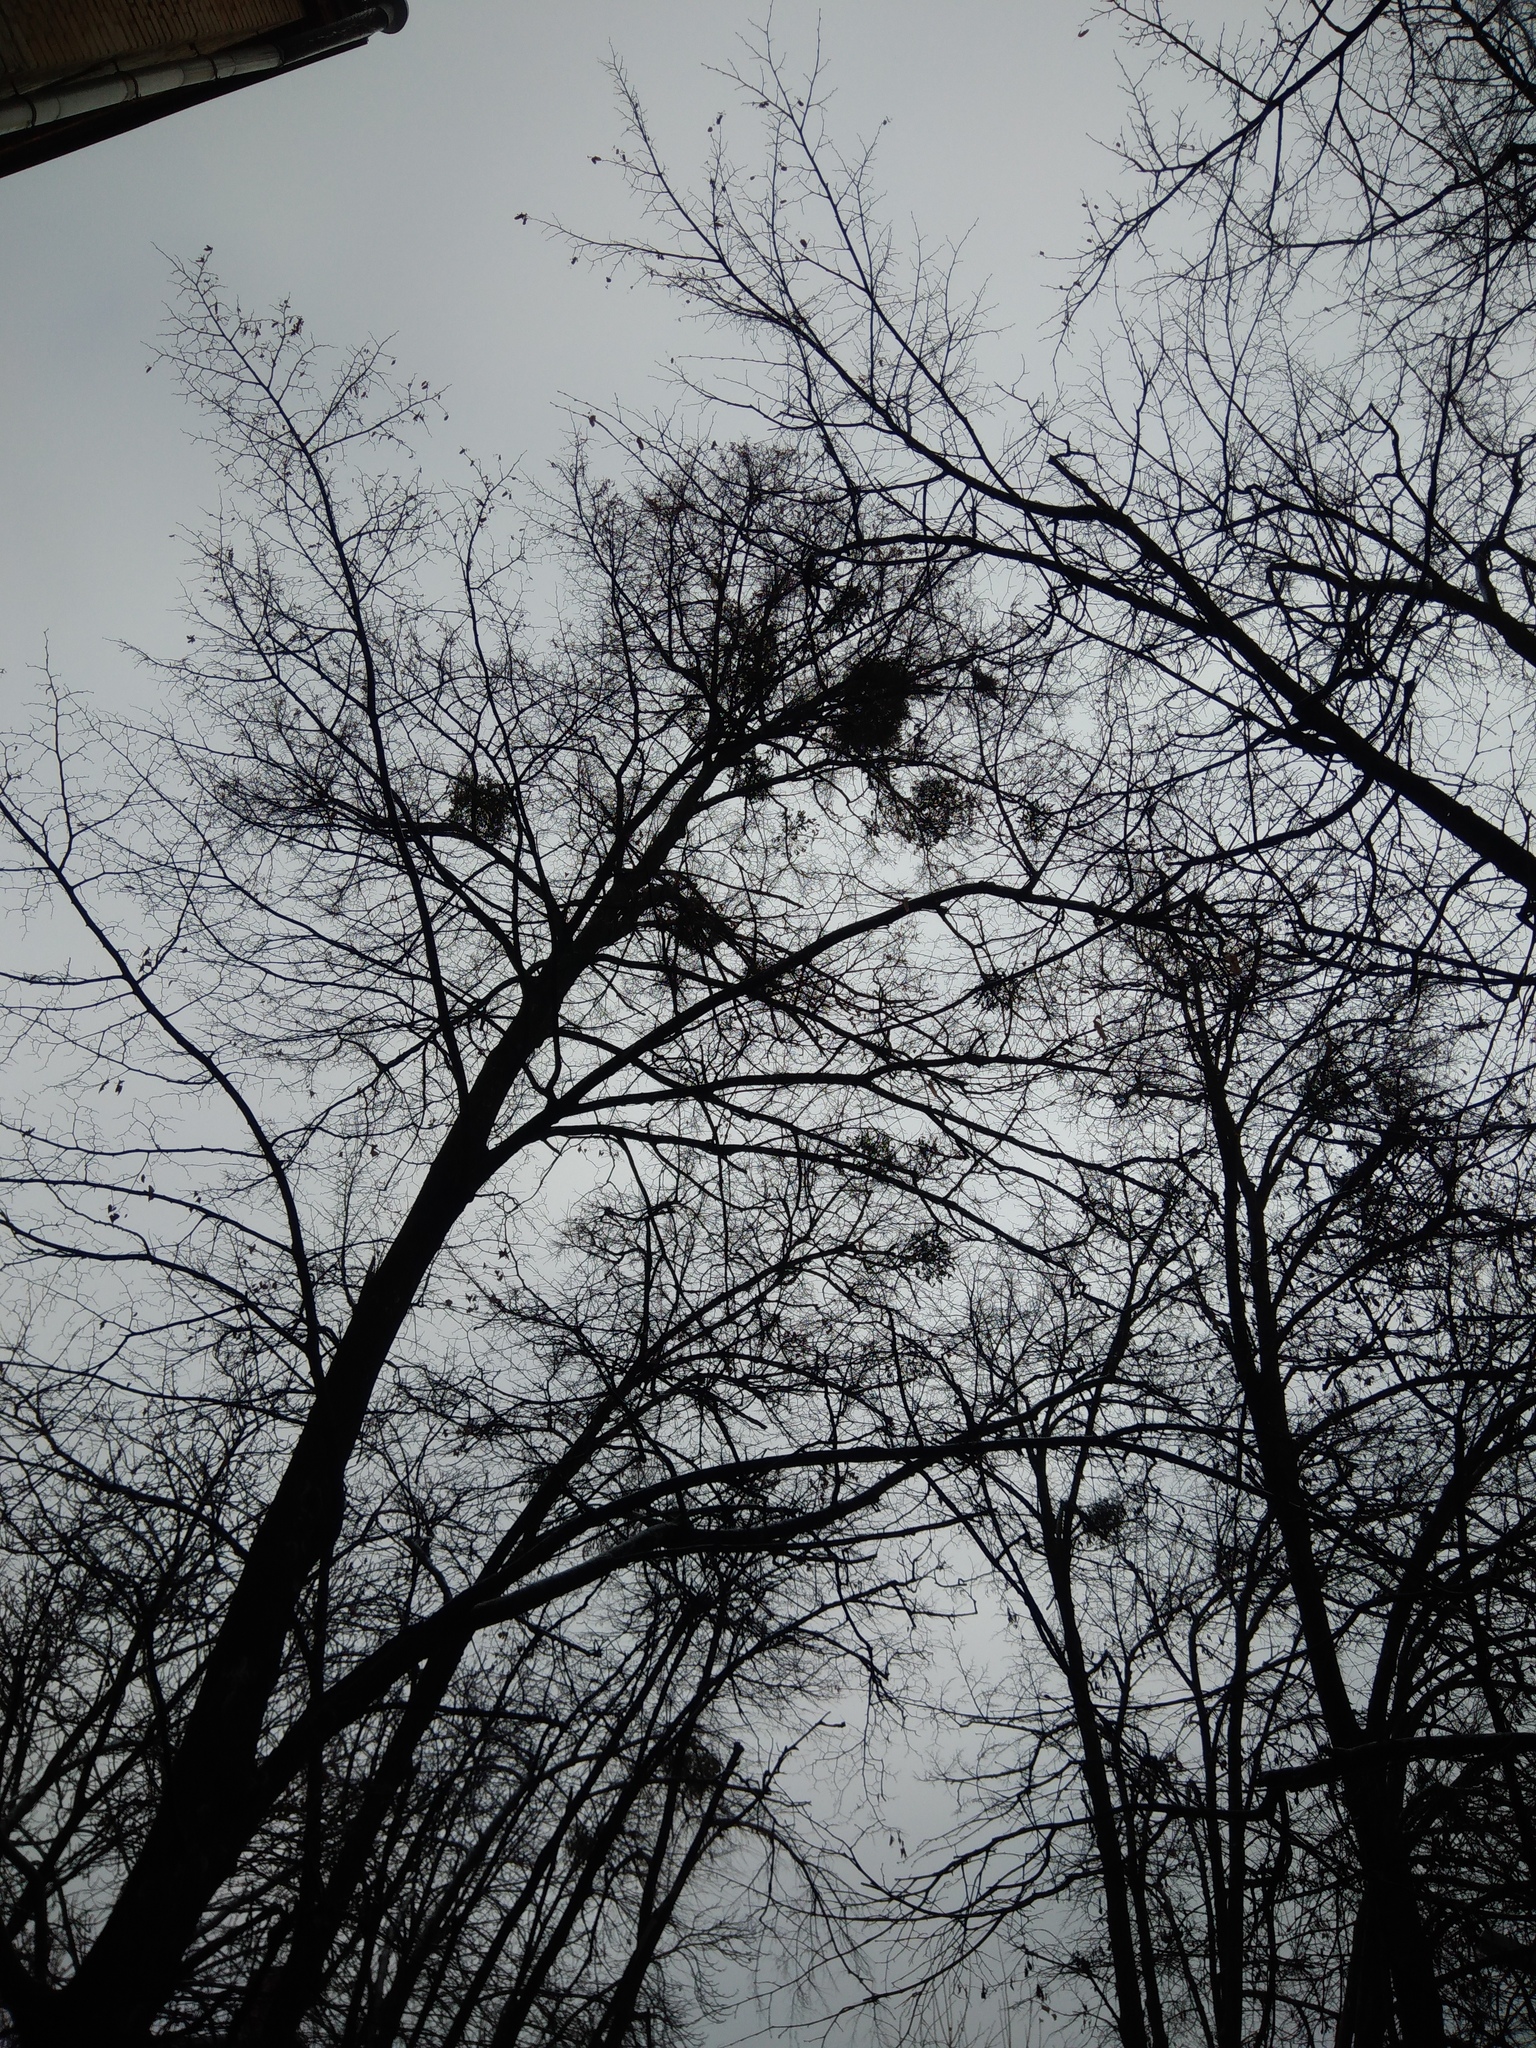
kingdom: Plantae
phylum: Tracheophyta
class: Magnoliopsida
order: Santalales
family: Viscaceae
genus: Viscum
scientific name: Viscum album
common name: Mistletoe
